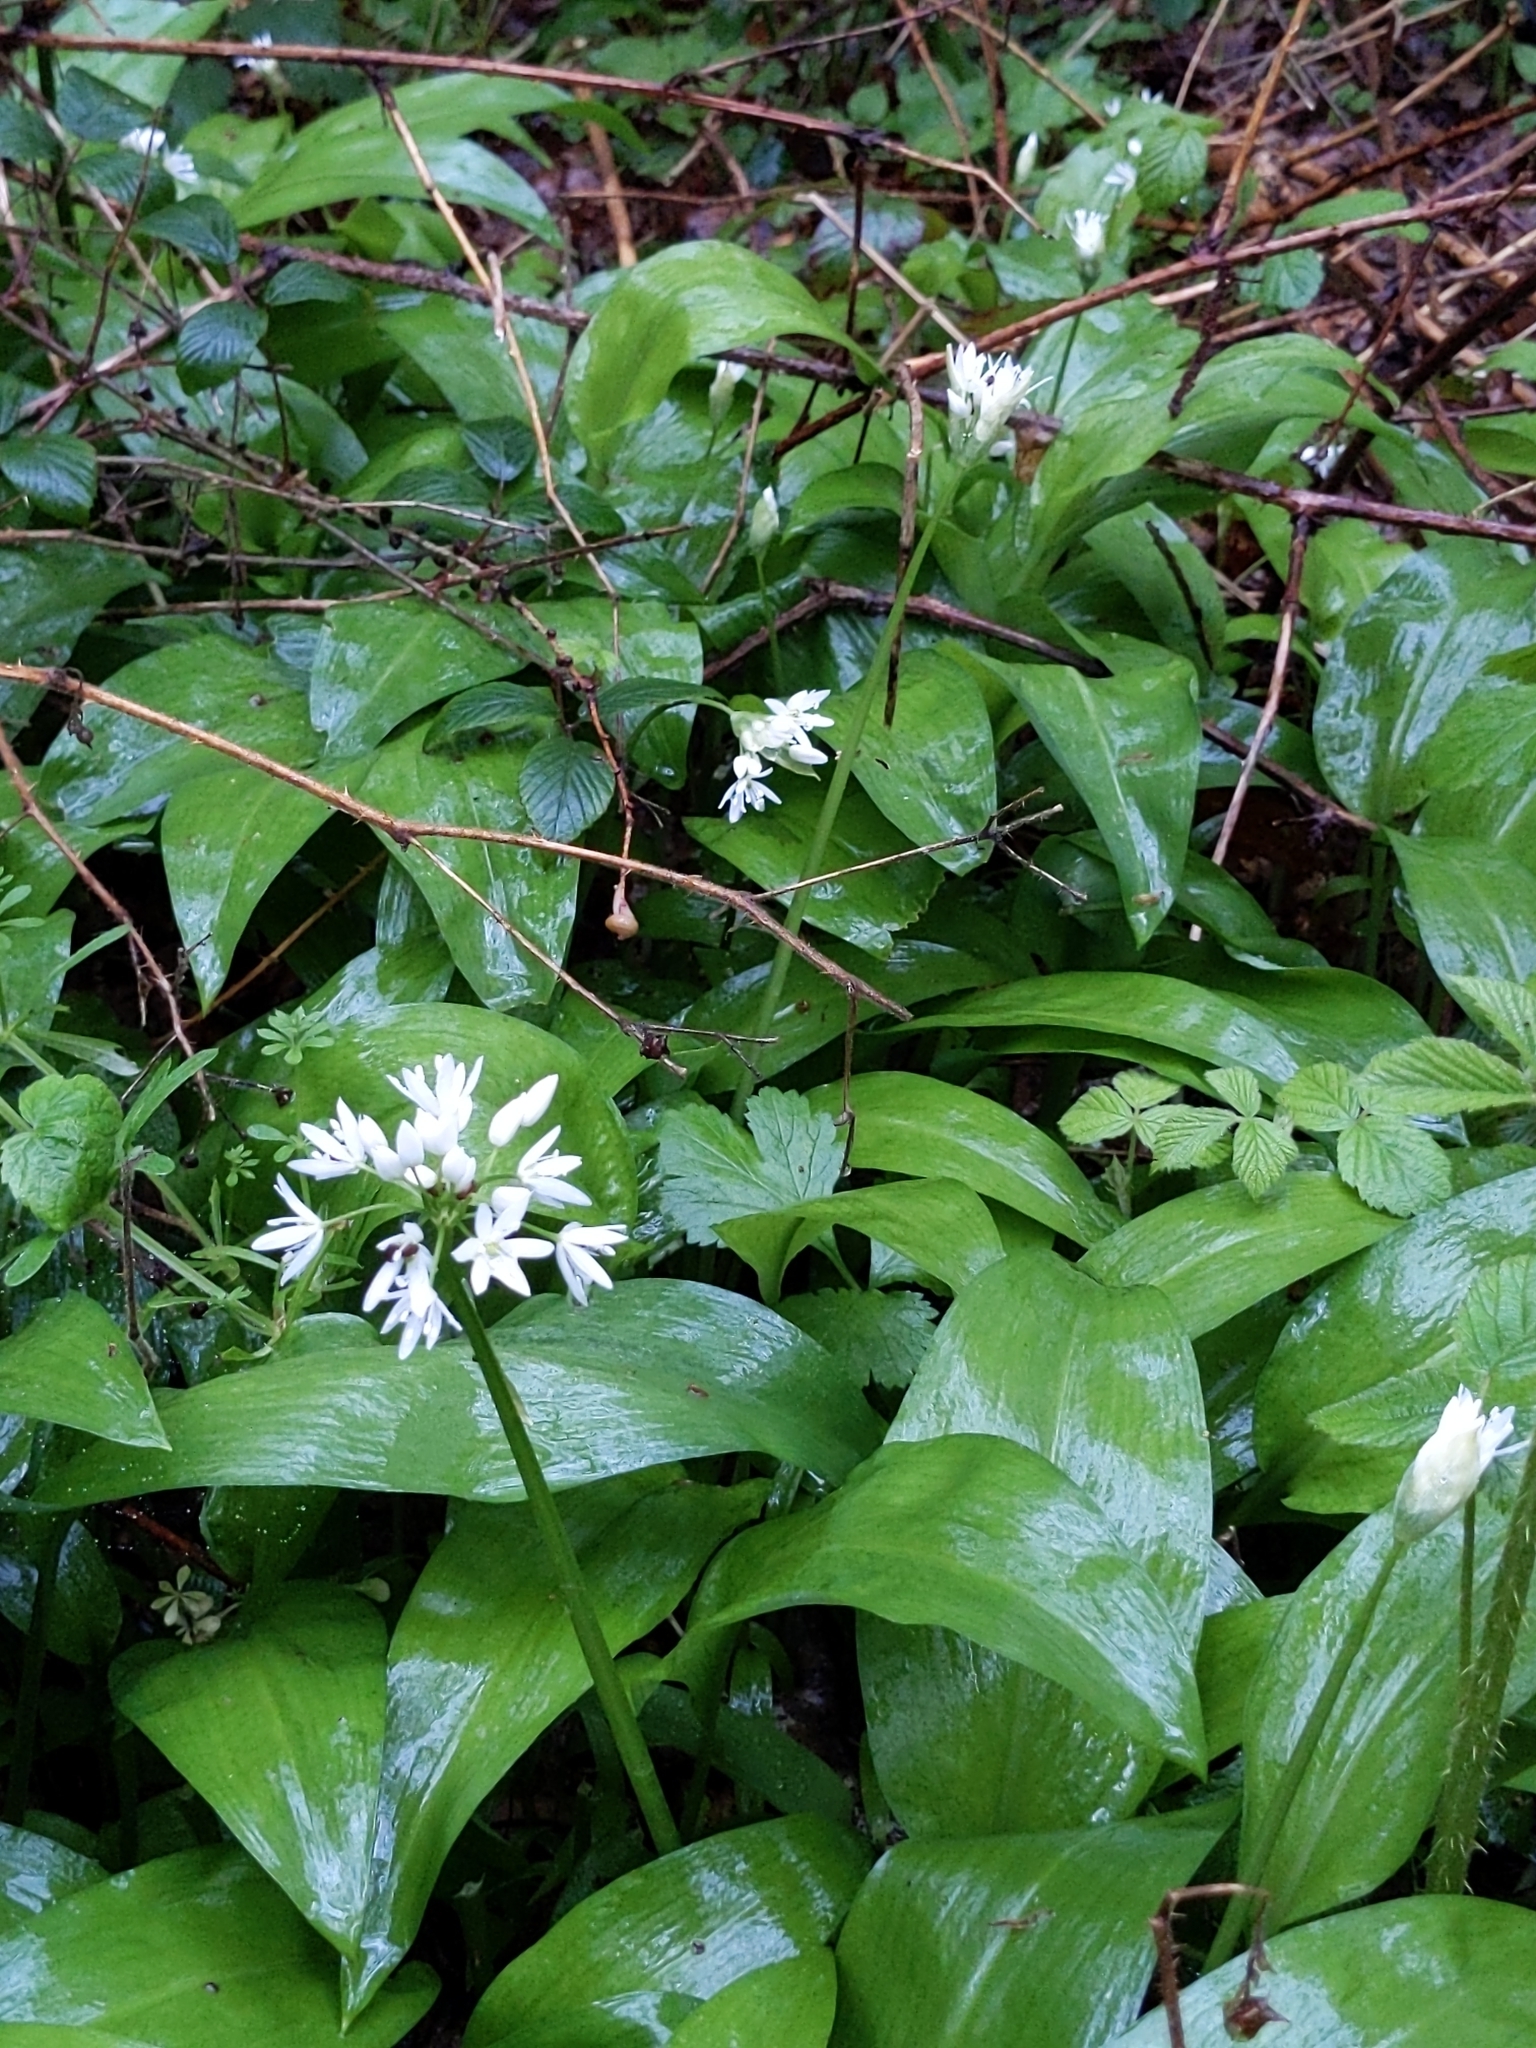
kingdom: Plantae
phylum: Tracheophyta
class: Liliopsida
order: Asparagales
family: Amaryllidaceae
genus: Allium
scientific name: Allium ursinum
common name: Ramsons
